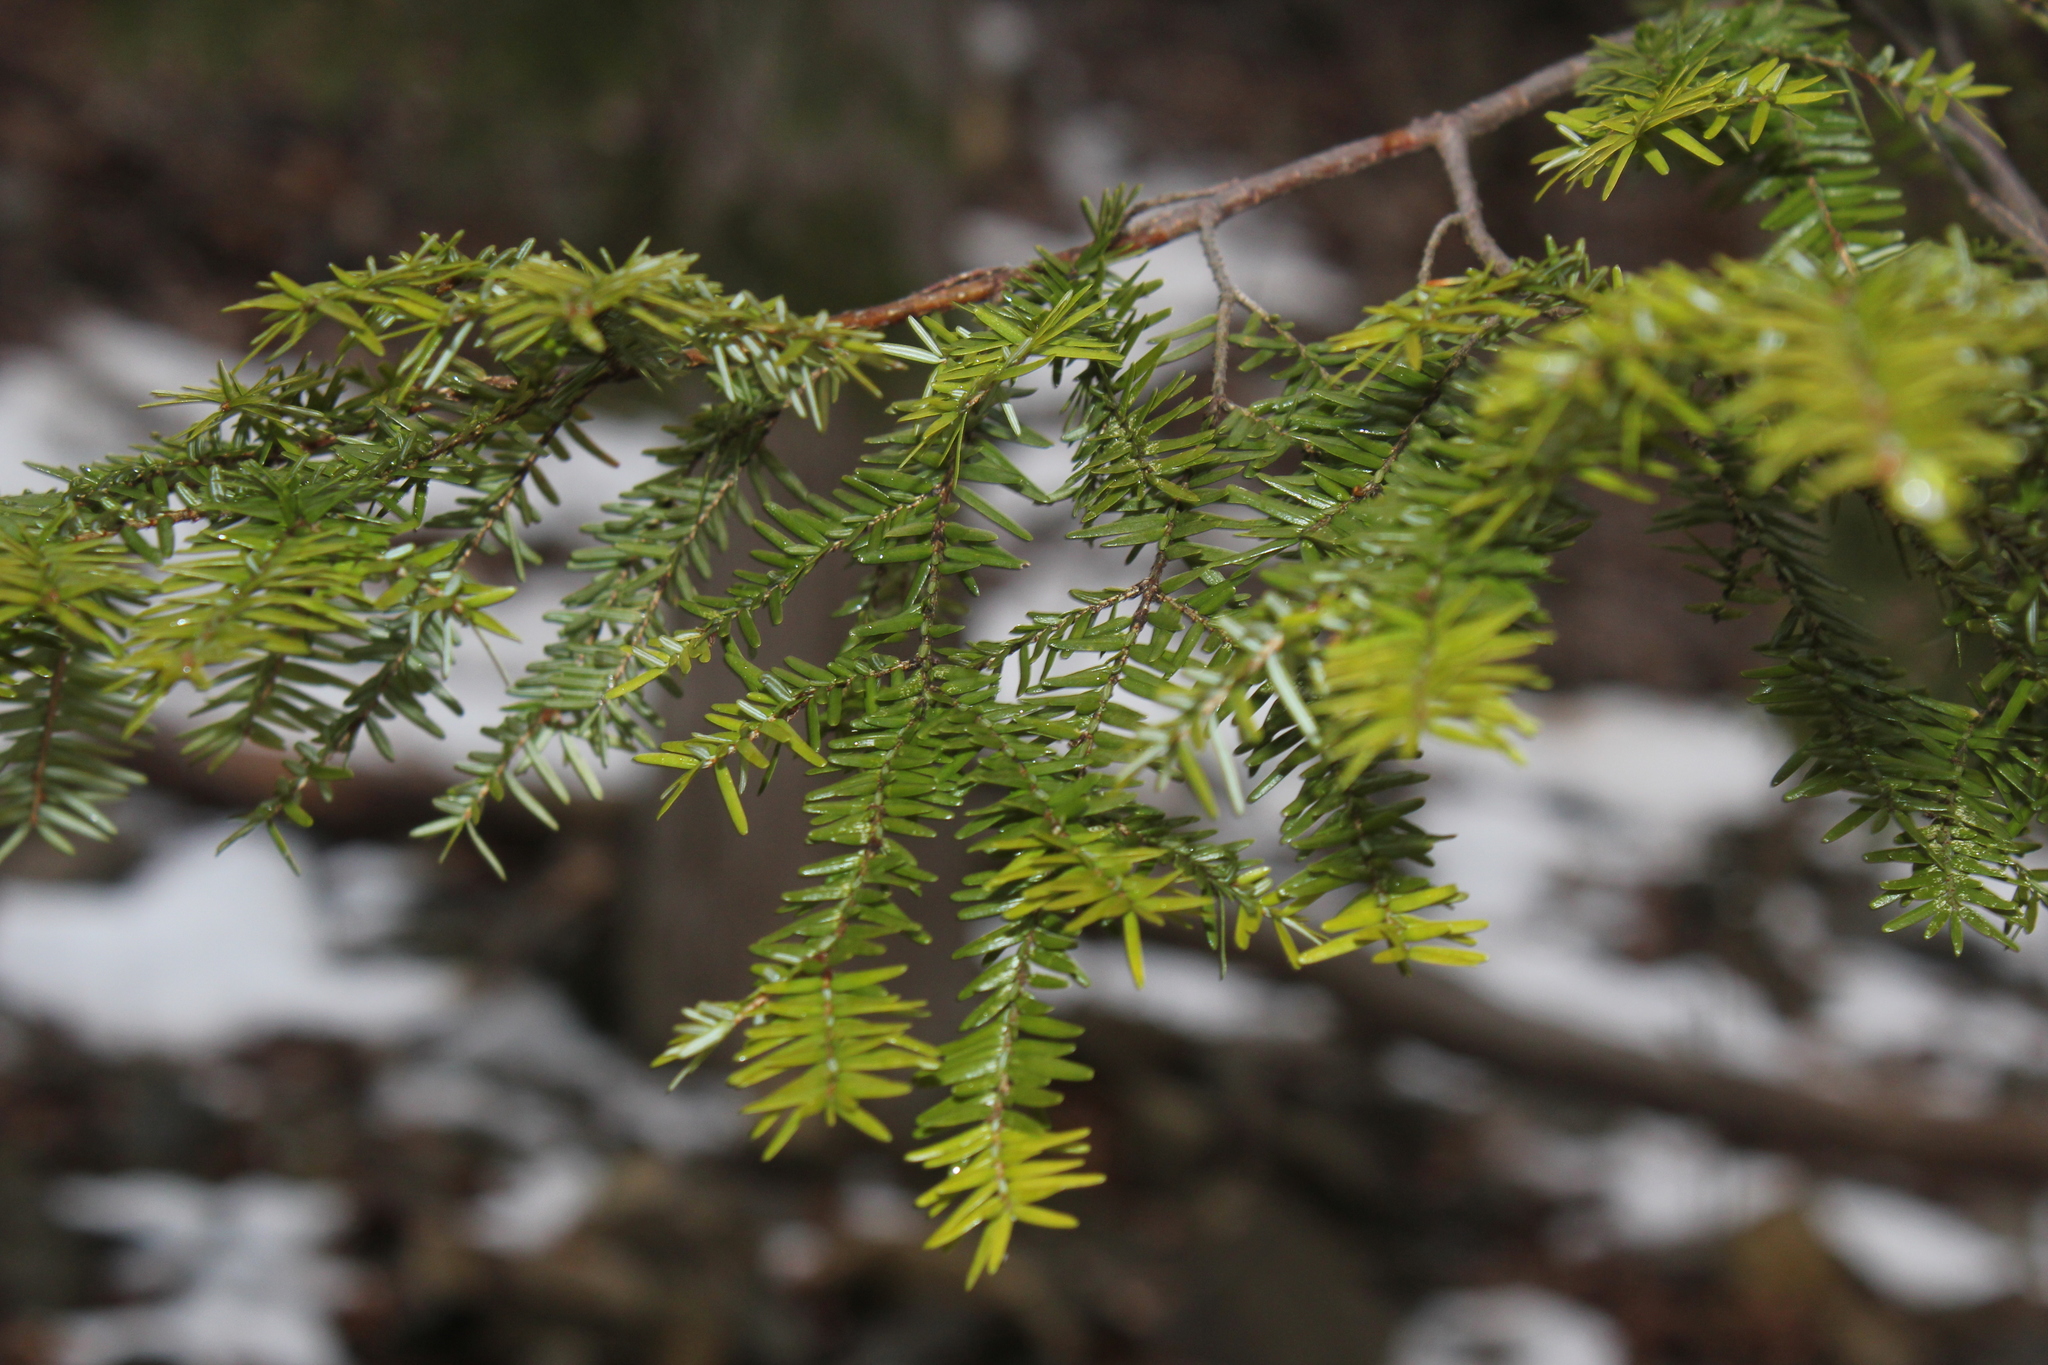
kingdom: Plantae
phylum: Tracheophyta
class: Pinopsida
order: Pinales
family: Pinaceae
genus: Tsuga
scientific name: Tsuga canadensis
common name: Eastern hemlock
